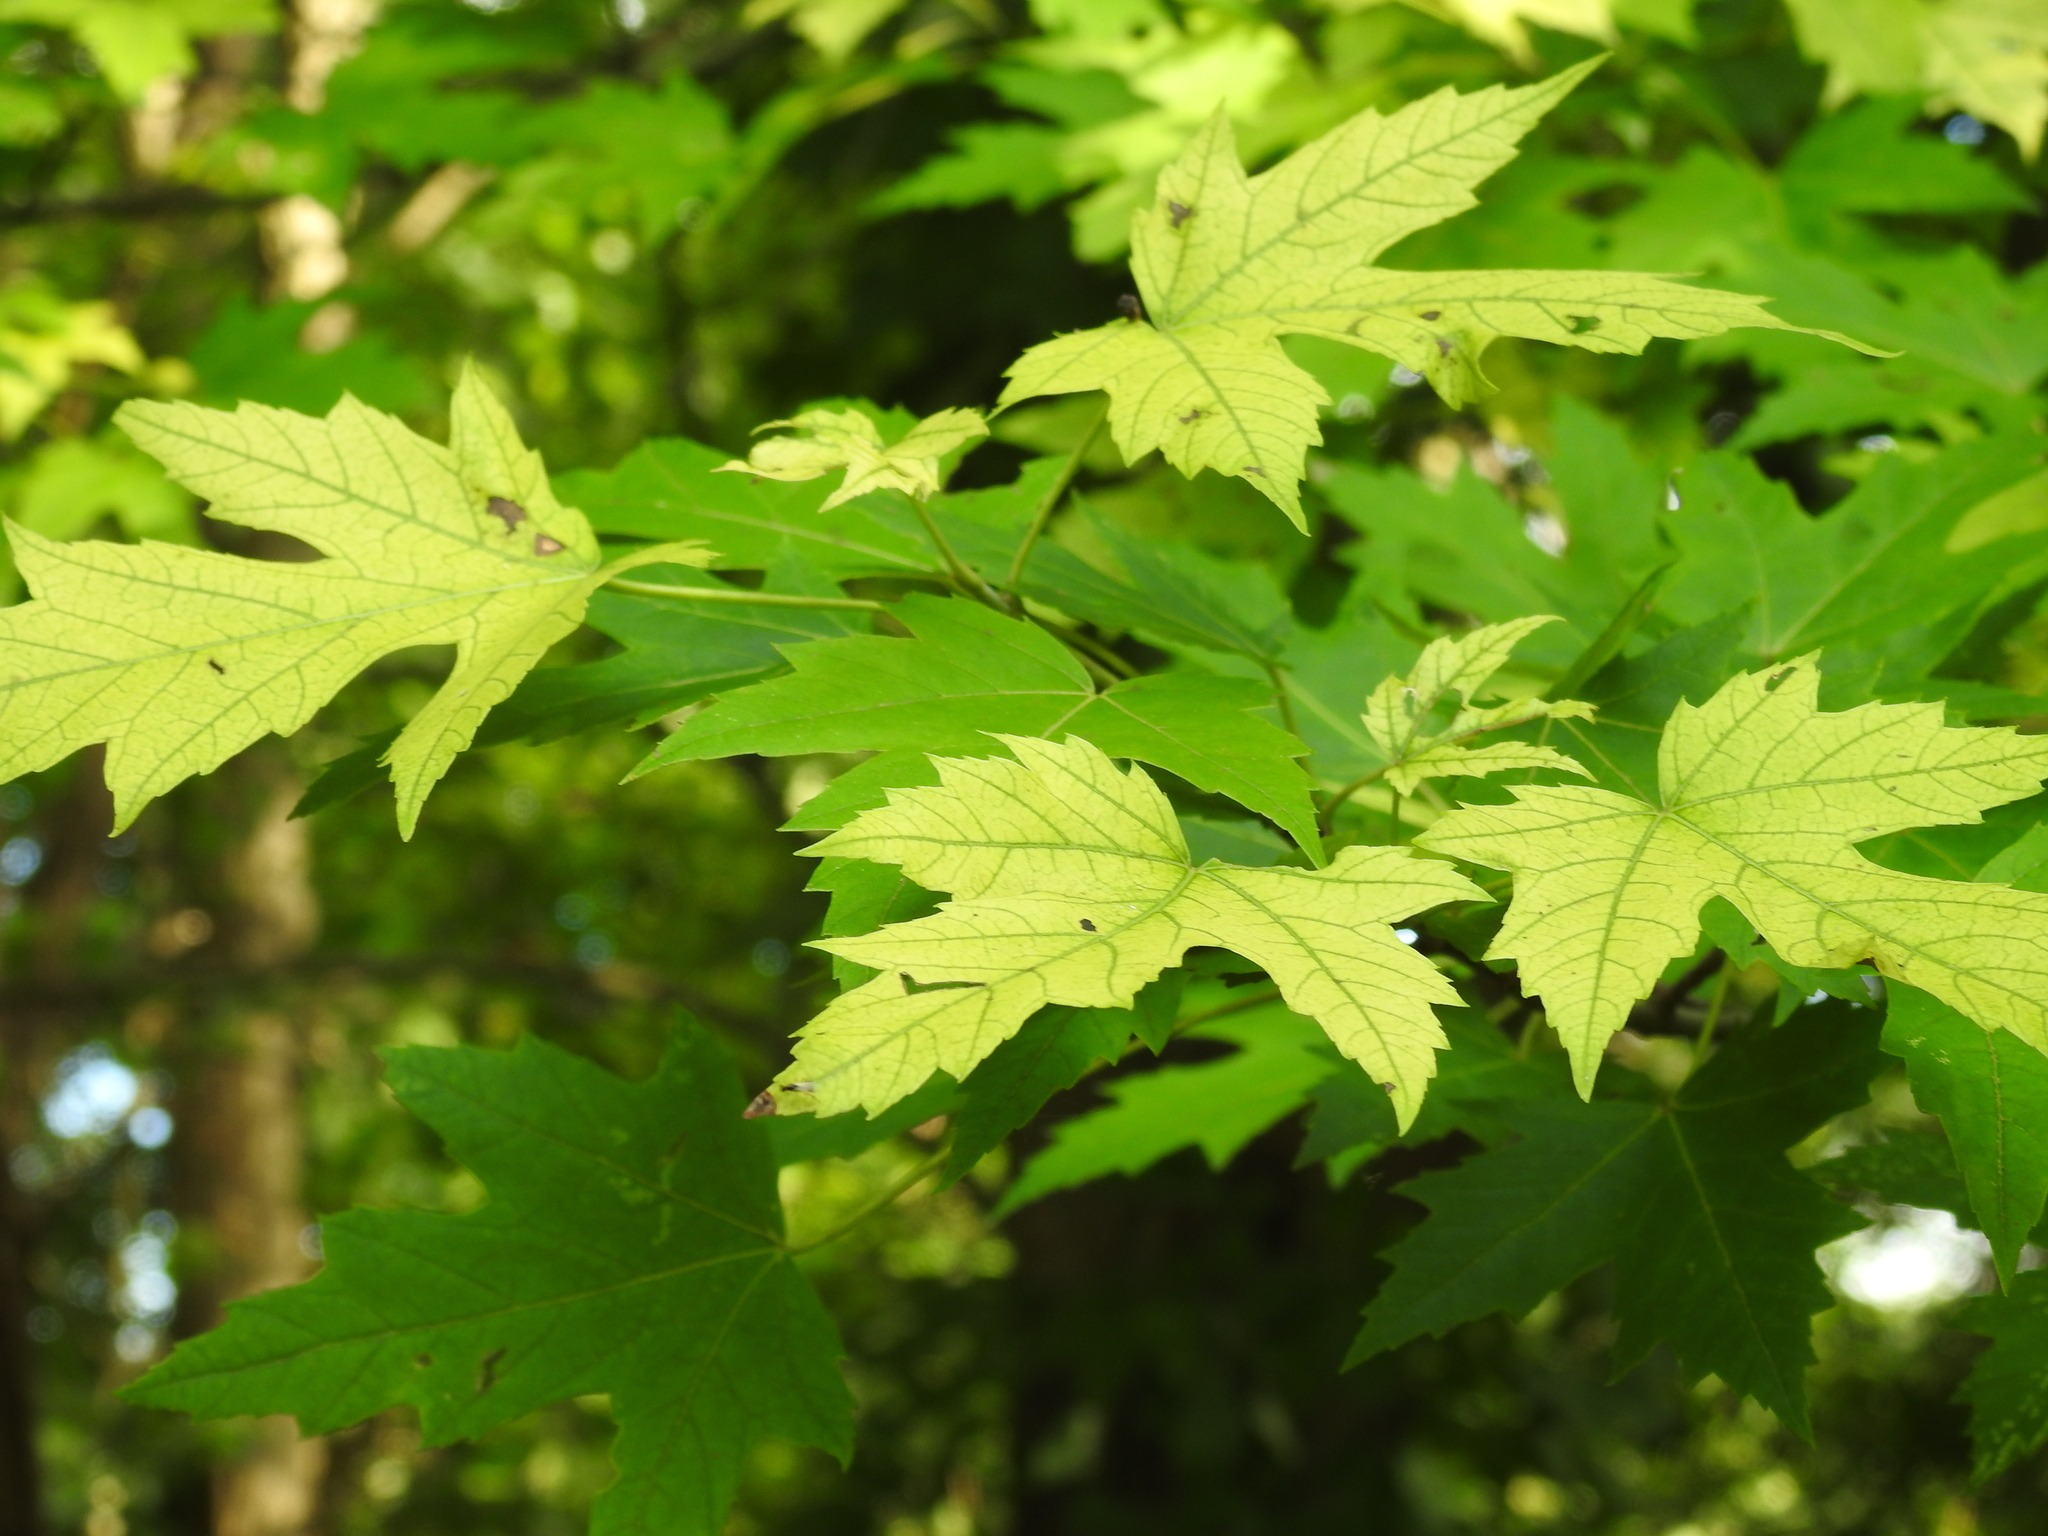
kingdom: Plantae
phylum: Tracheophyta
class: Magnoliopsida
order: Sapindales
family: Sapindaceae
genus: Acer
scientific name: Acer saccharinum
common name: Silver maple
